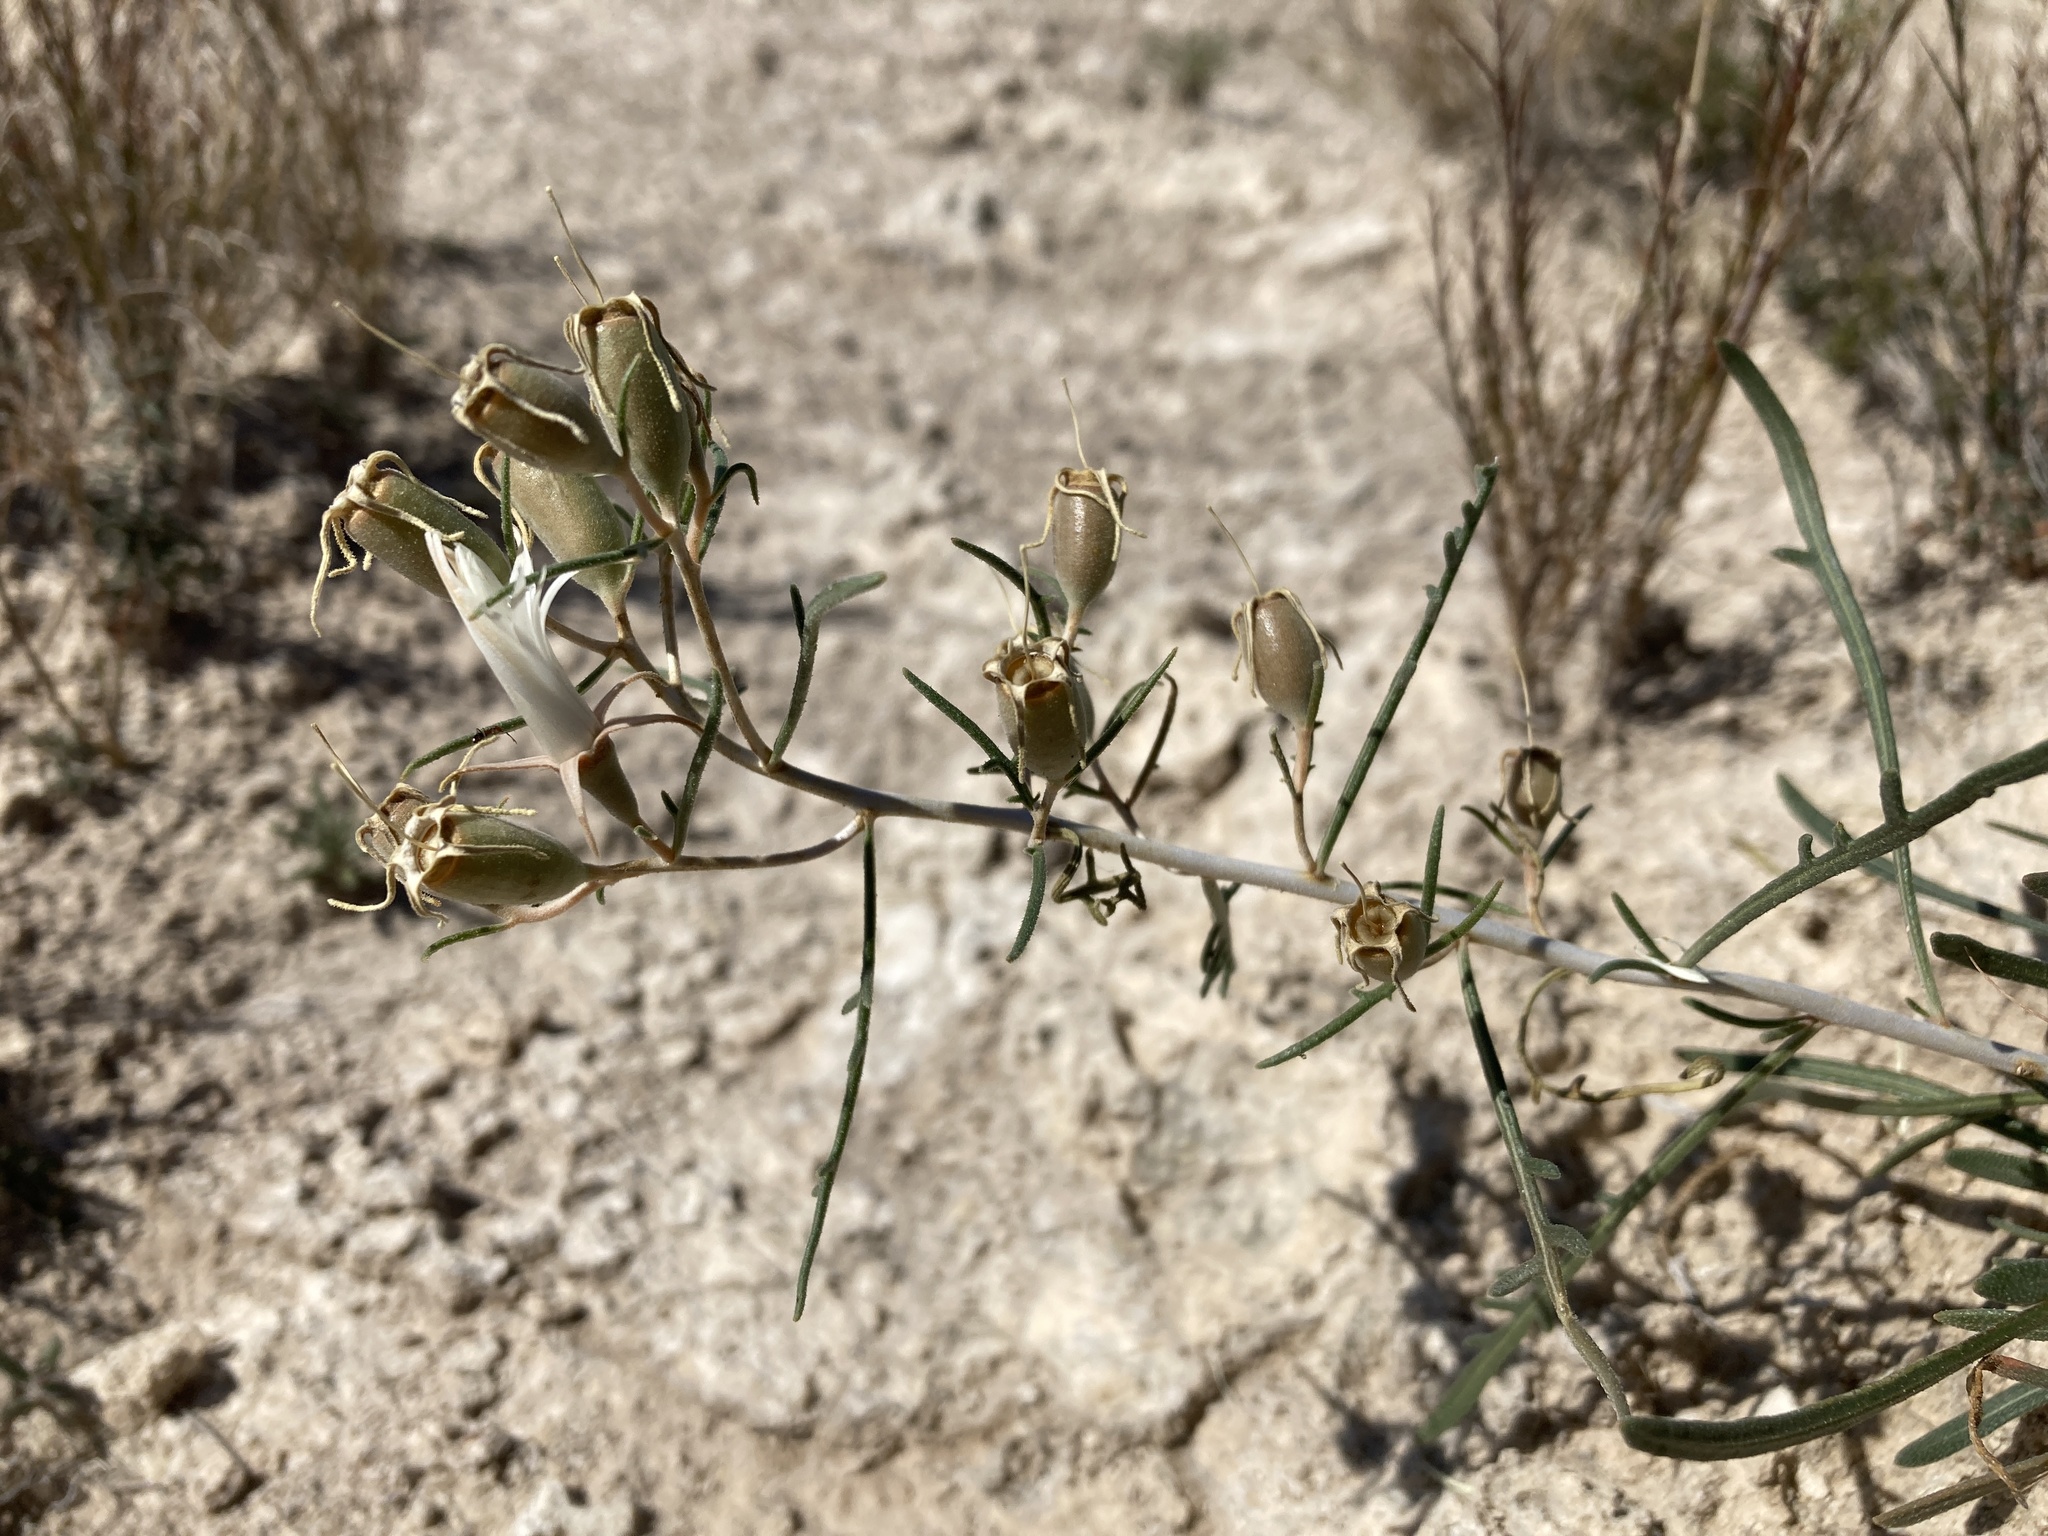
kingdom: Plantae
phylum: Tracheophyta
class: Magnoliopsida
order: Cornales
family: Loasaceae
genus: Mentzelia
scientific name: Mentzelia humilis
